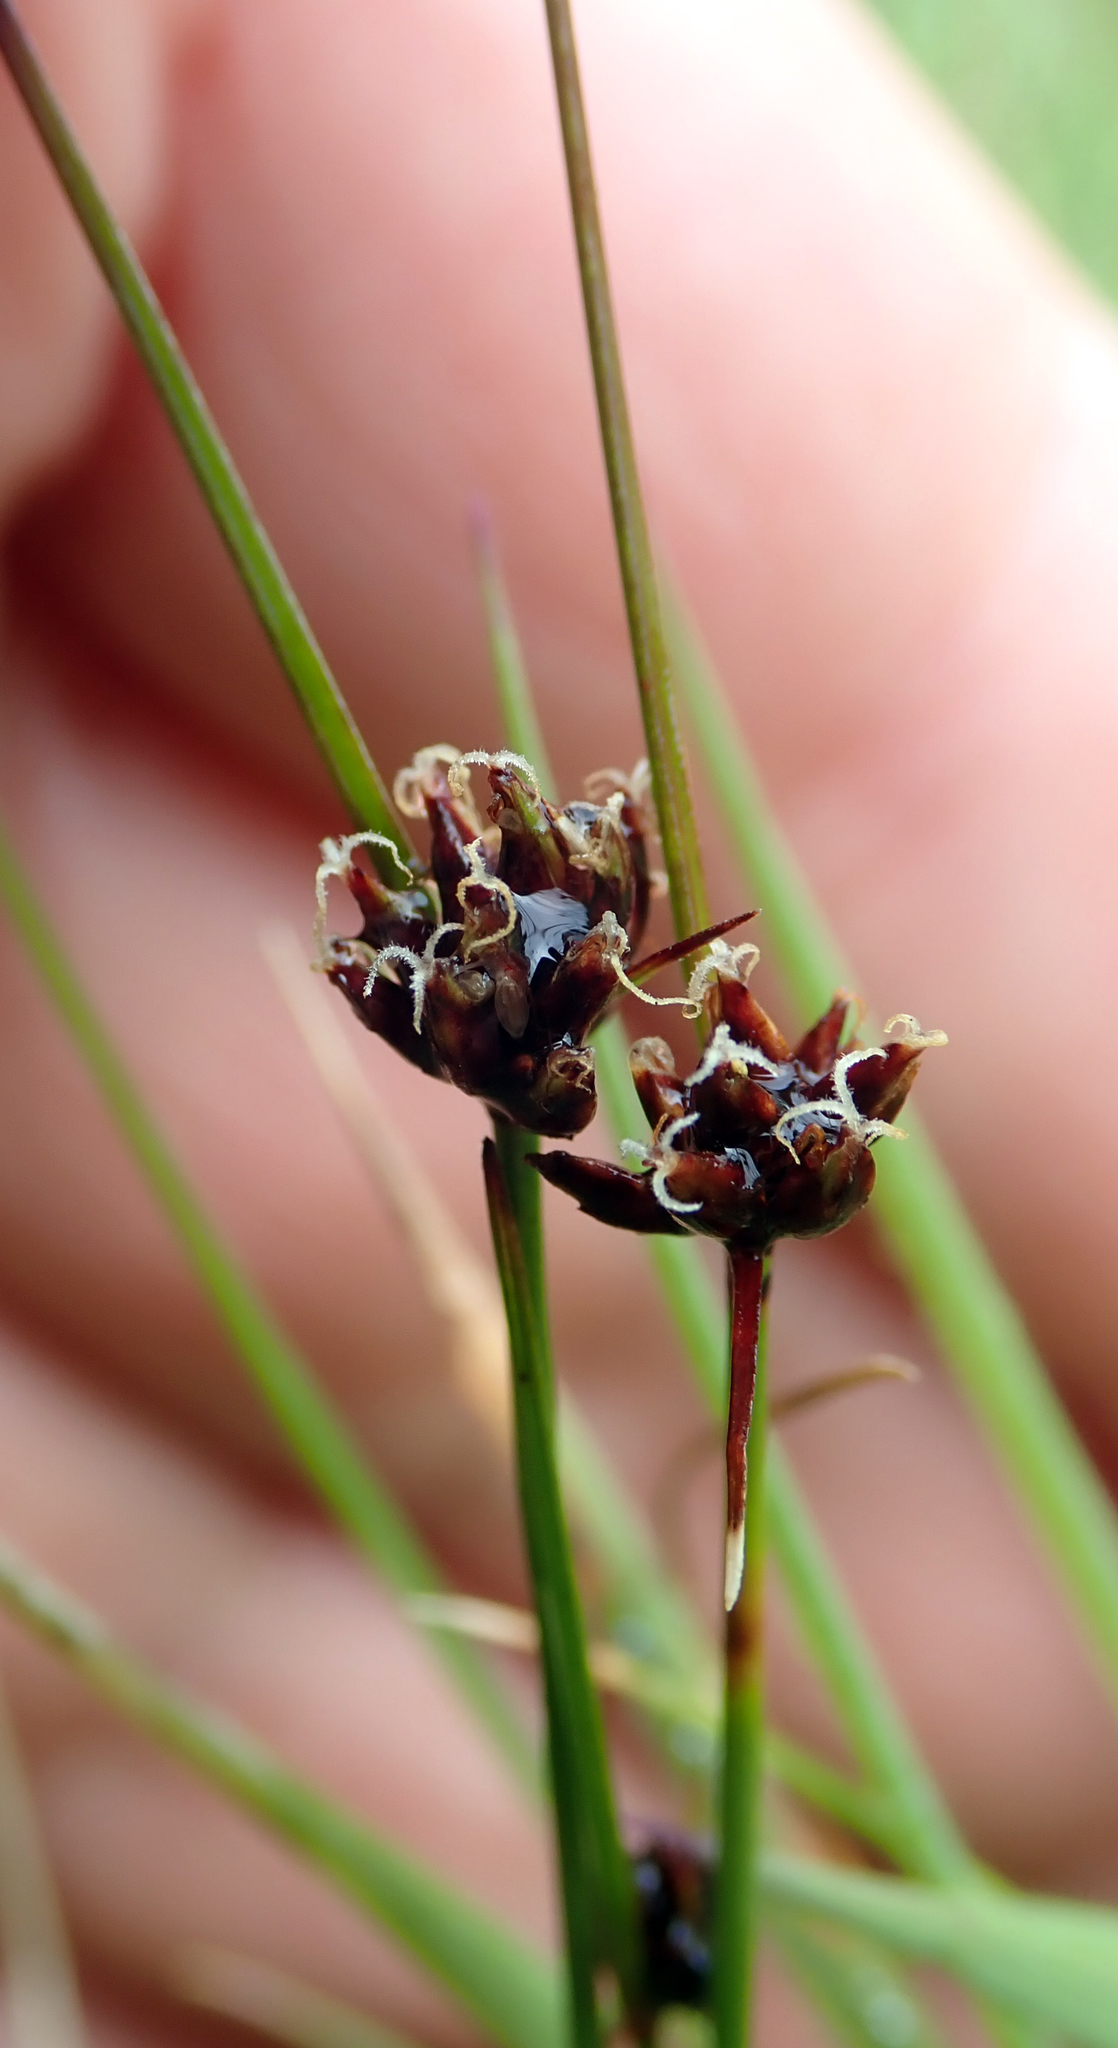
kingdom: Plantae
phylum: Tracheophyta
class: Liliopsida
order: Poales
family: Cyperaceae
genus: Schoenus
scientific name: Schoenus nitens
